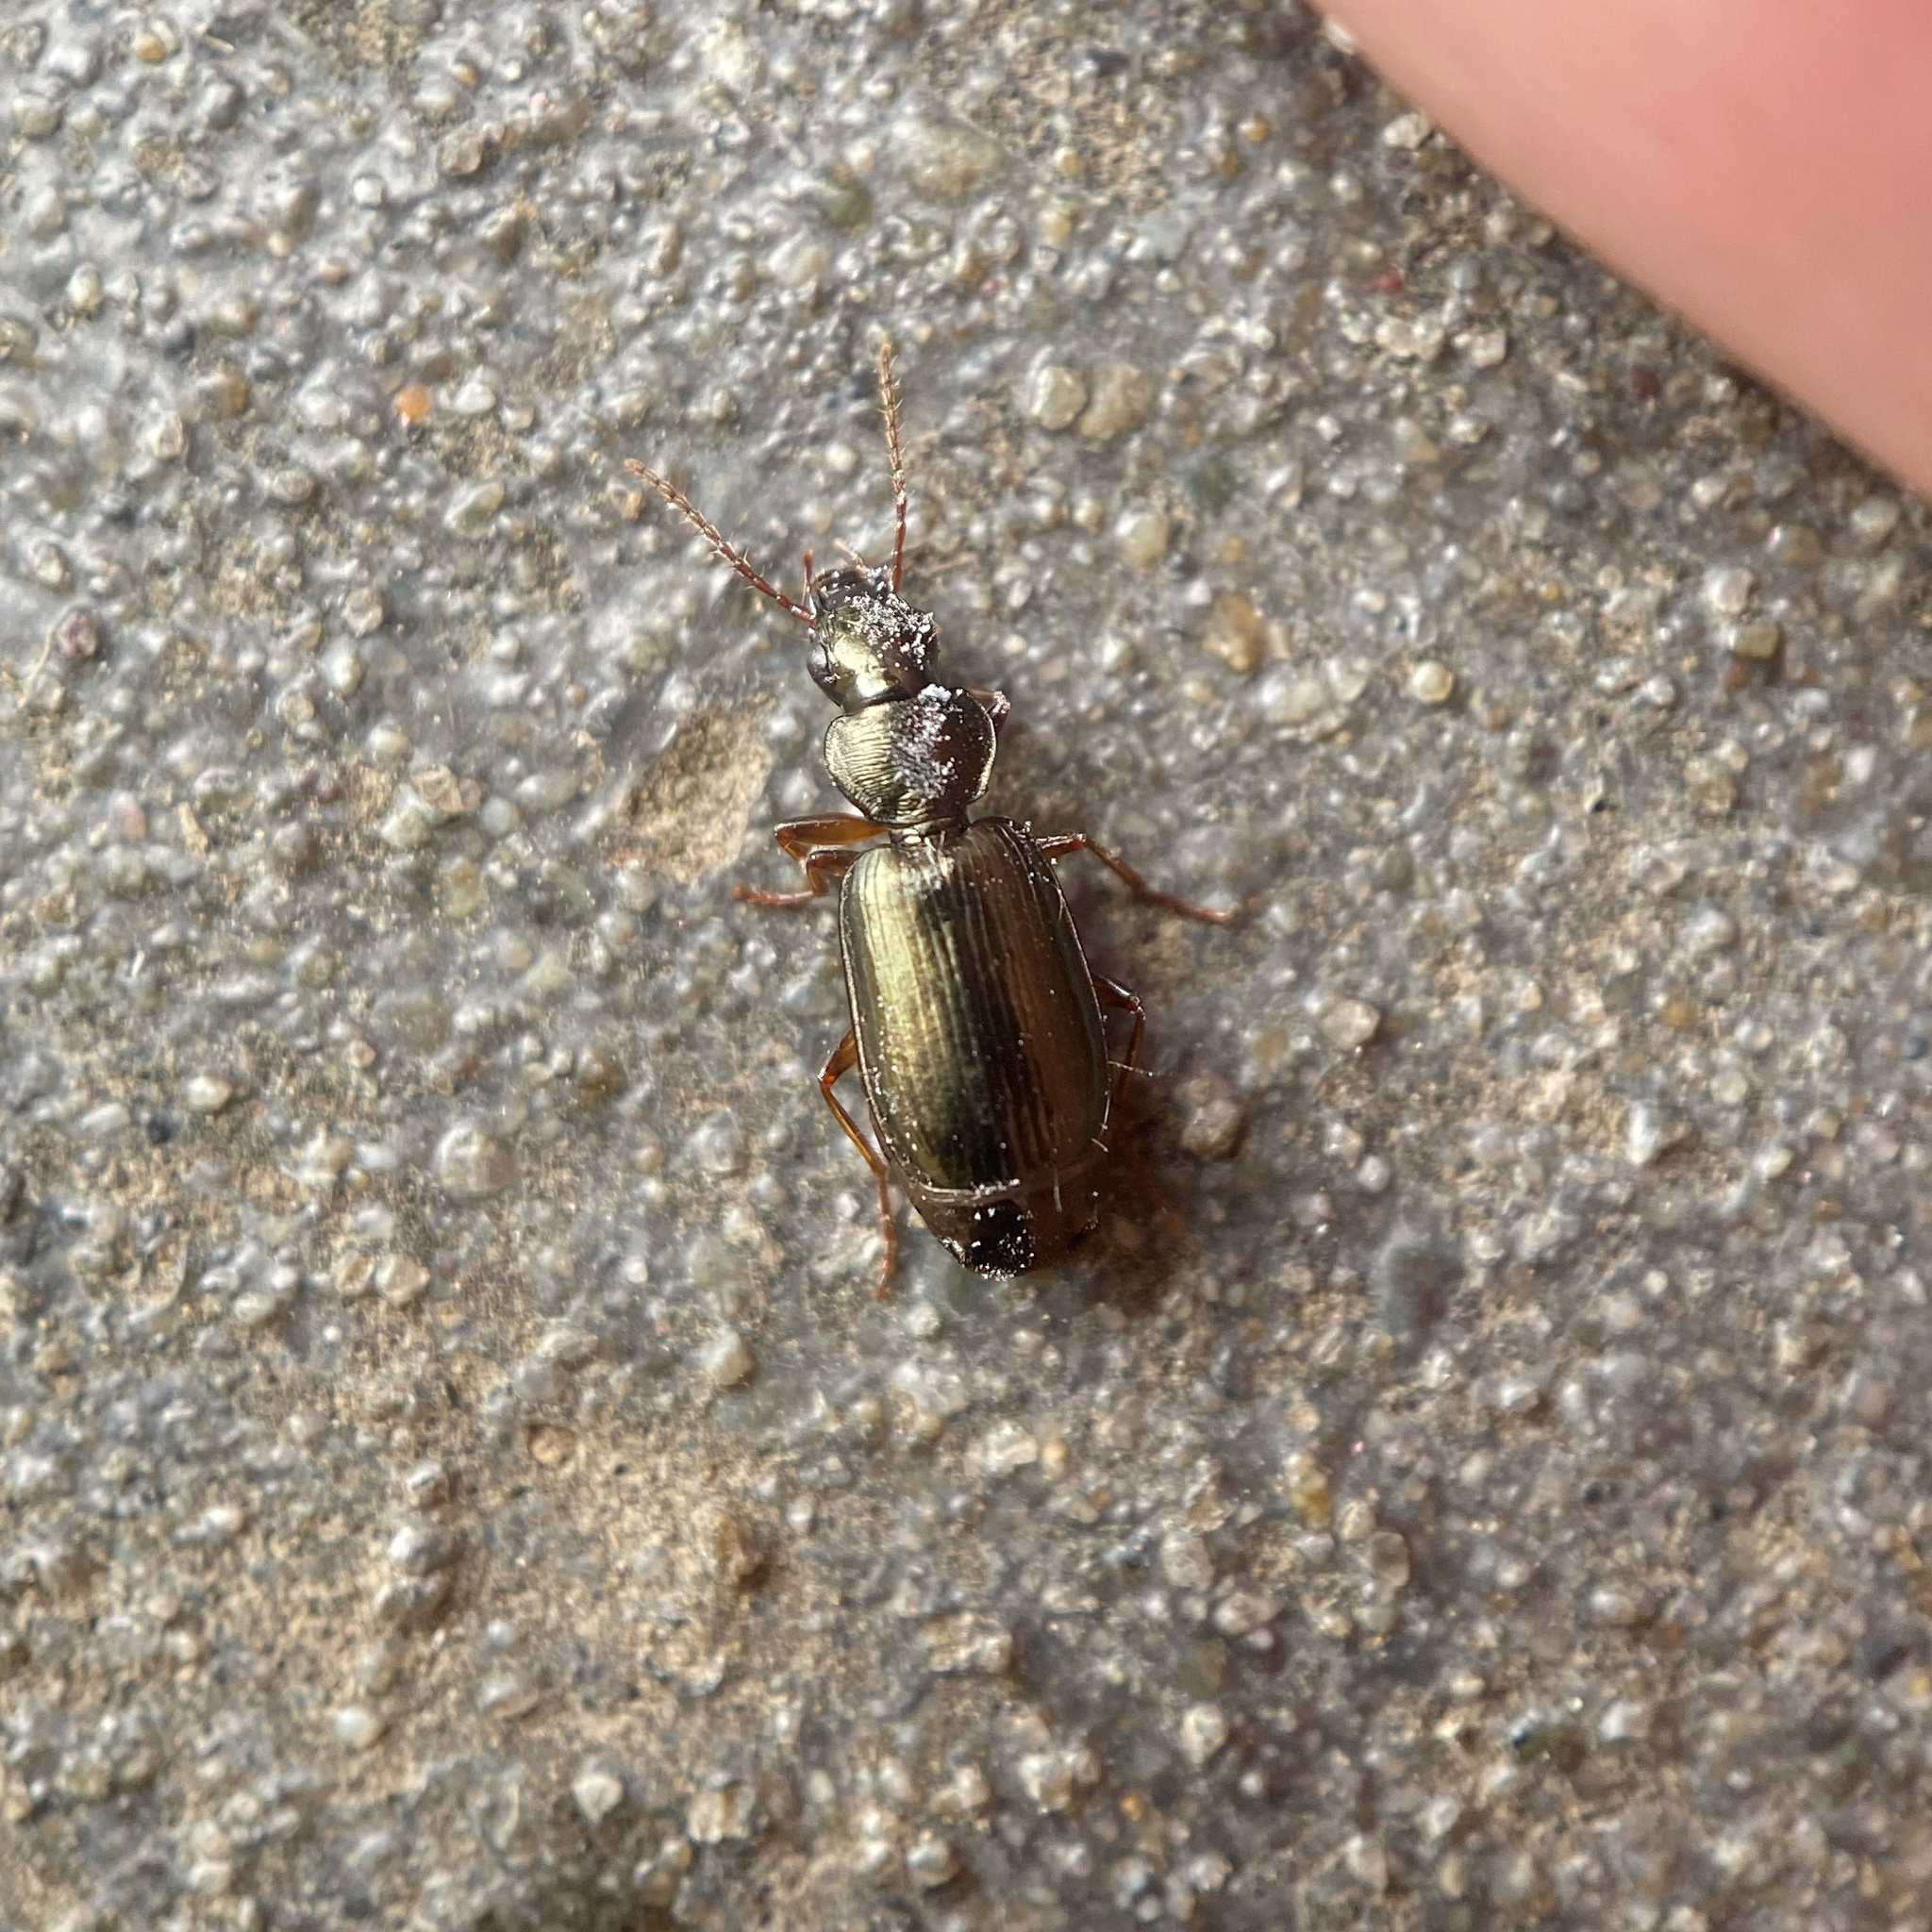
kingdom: Animalia
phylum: Arthropoda
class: Insecta
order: Coleoptera
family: Carabidae
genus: Anomotarus
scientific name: Anomotarus illawarrae
